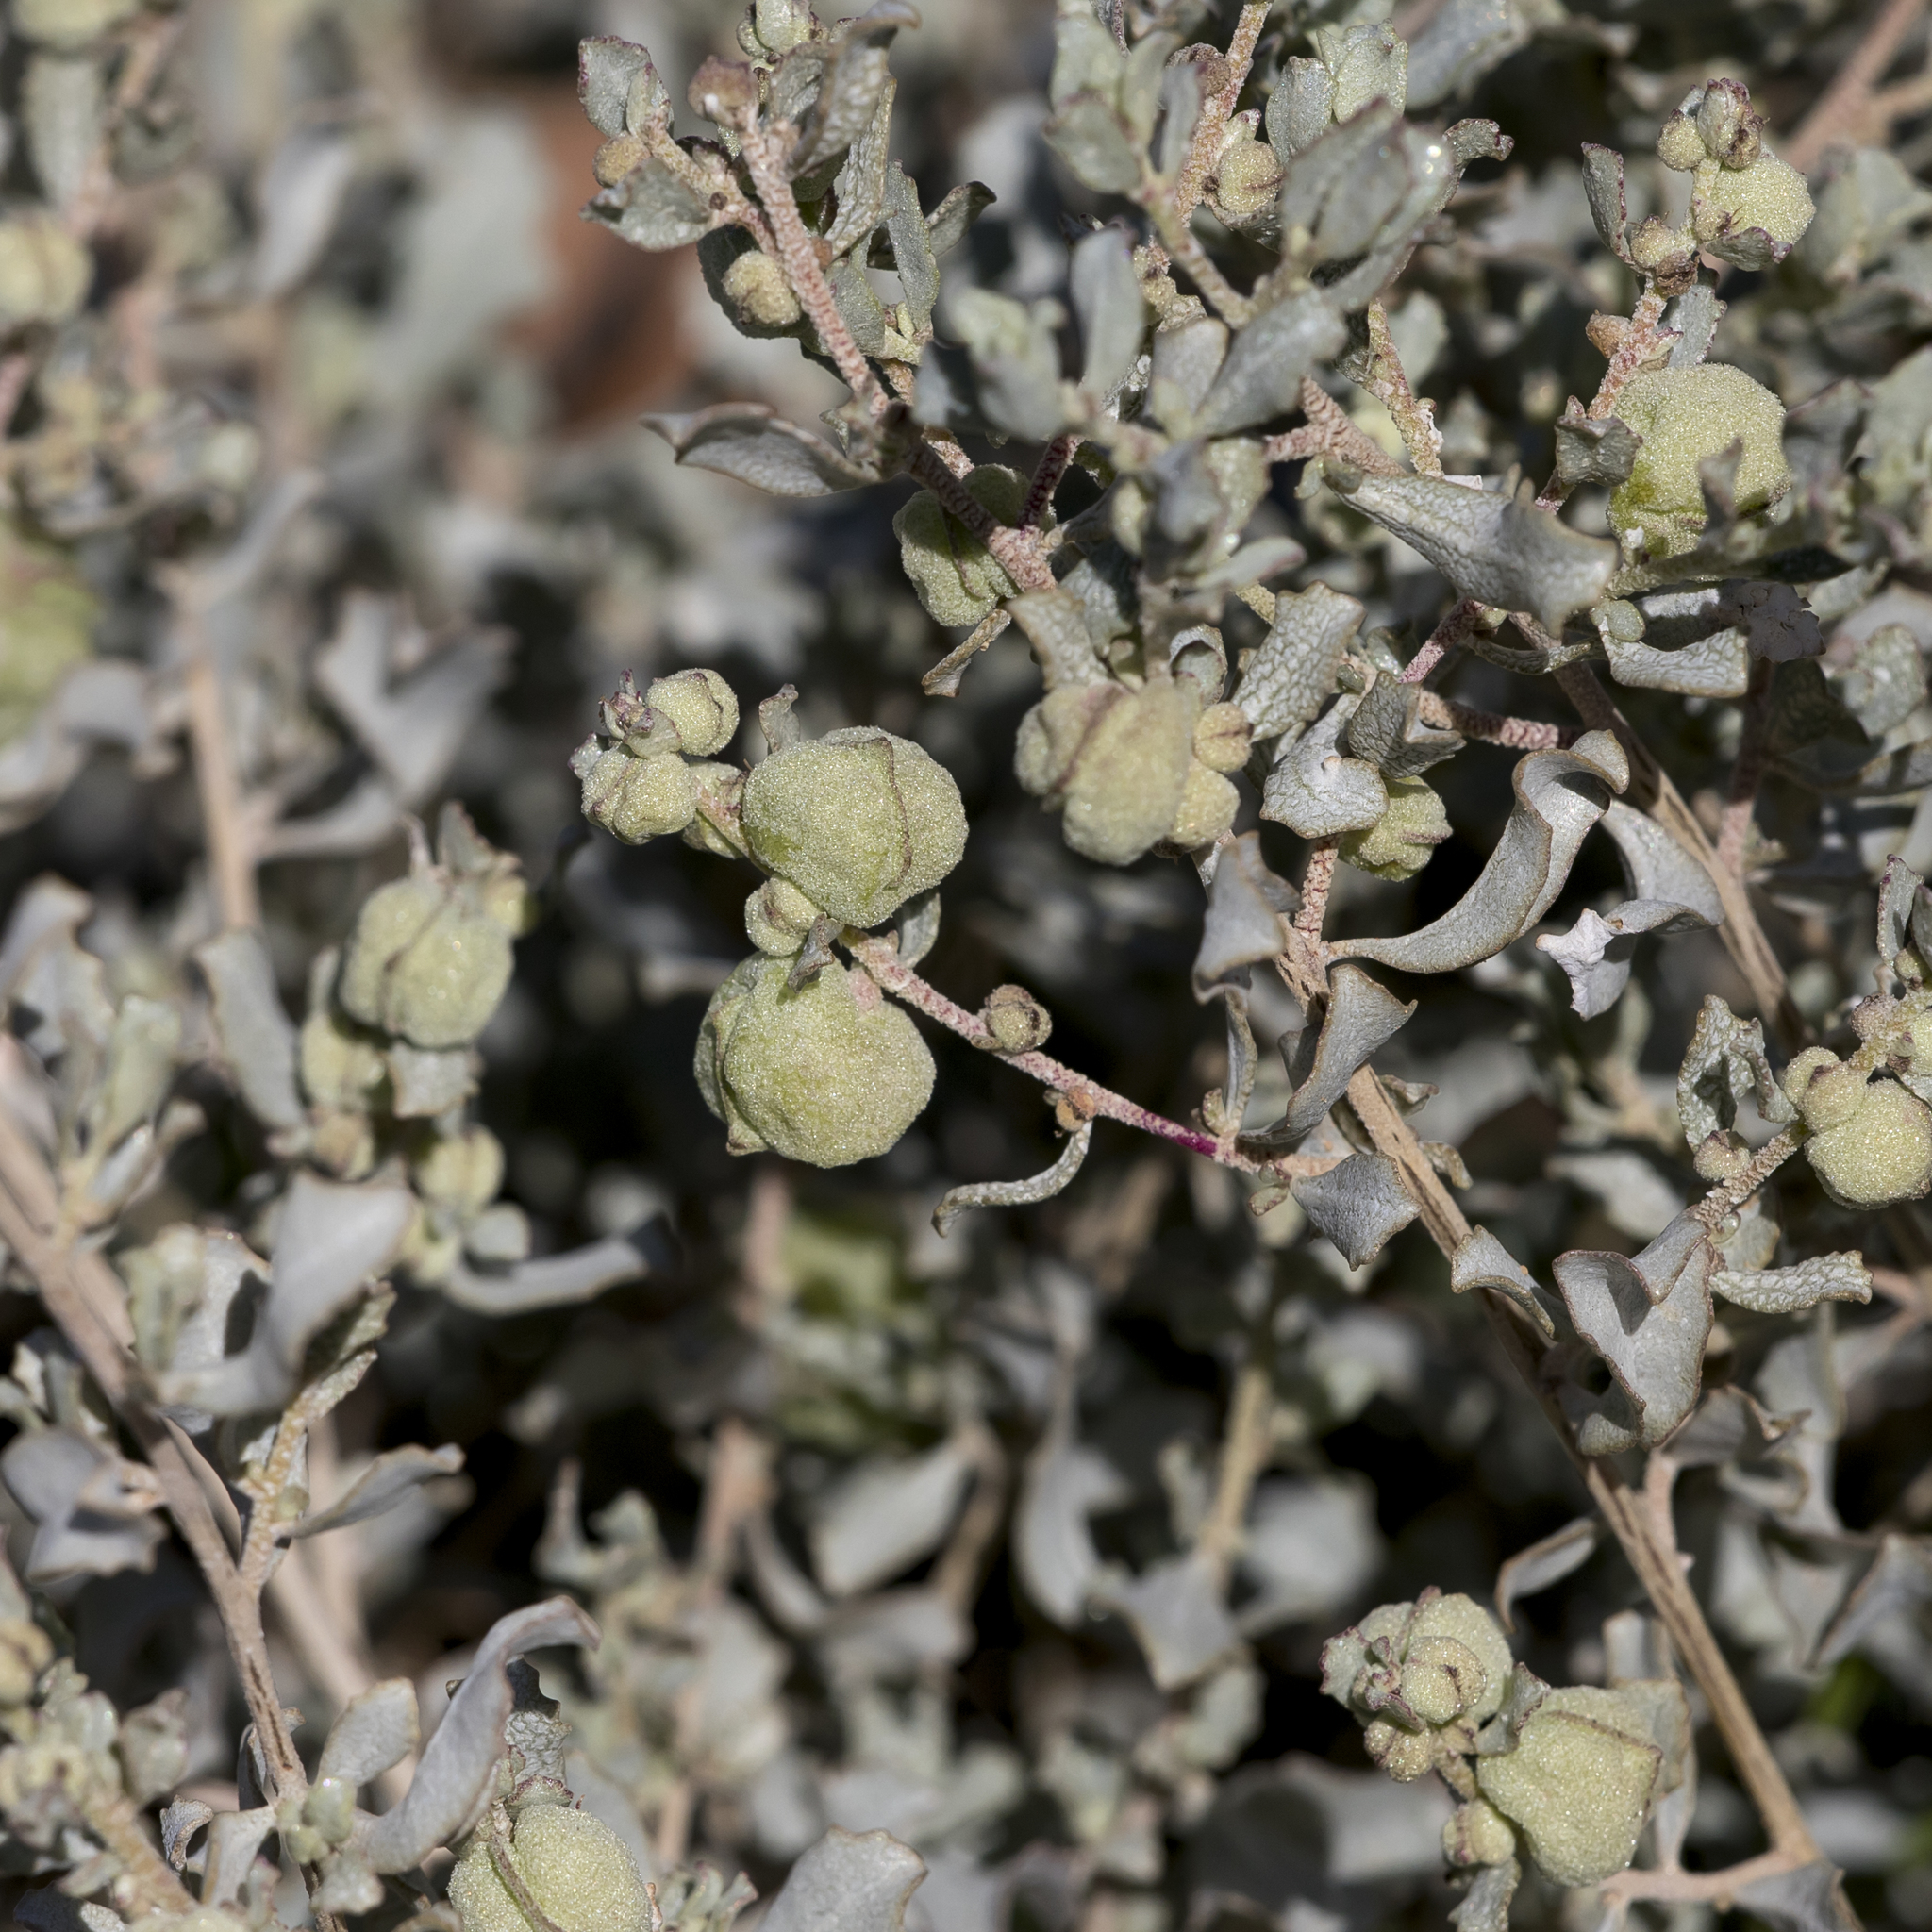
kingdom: Plantae
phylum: Tracheophyta
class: Magnoliopsida
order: Caryophyllales
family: Amaranthaceae
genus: Atriplex
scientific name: Atriplex vesicaria
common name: Aboriginal saltbush
